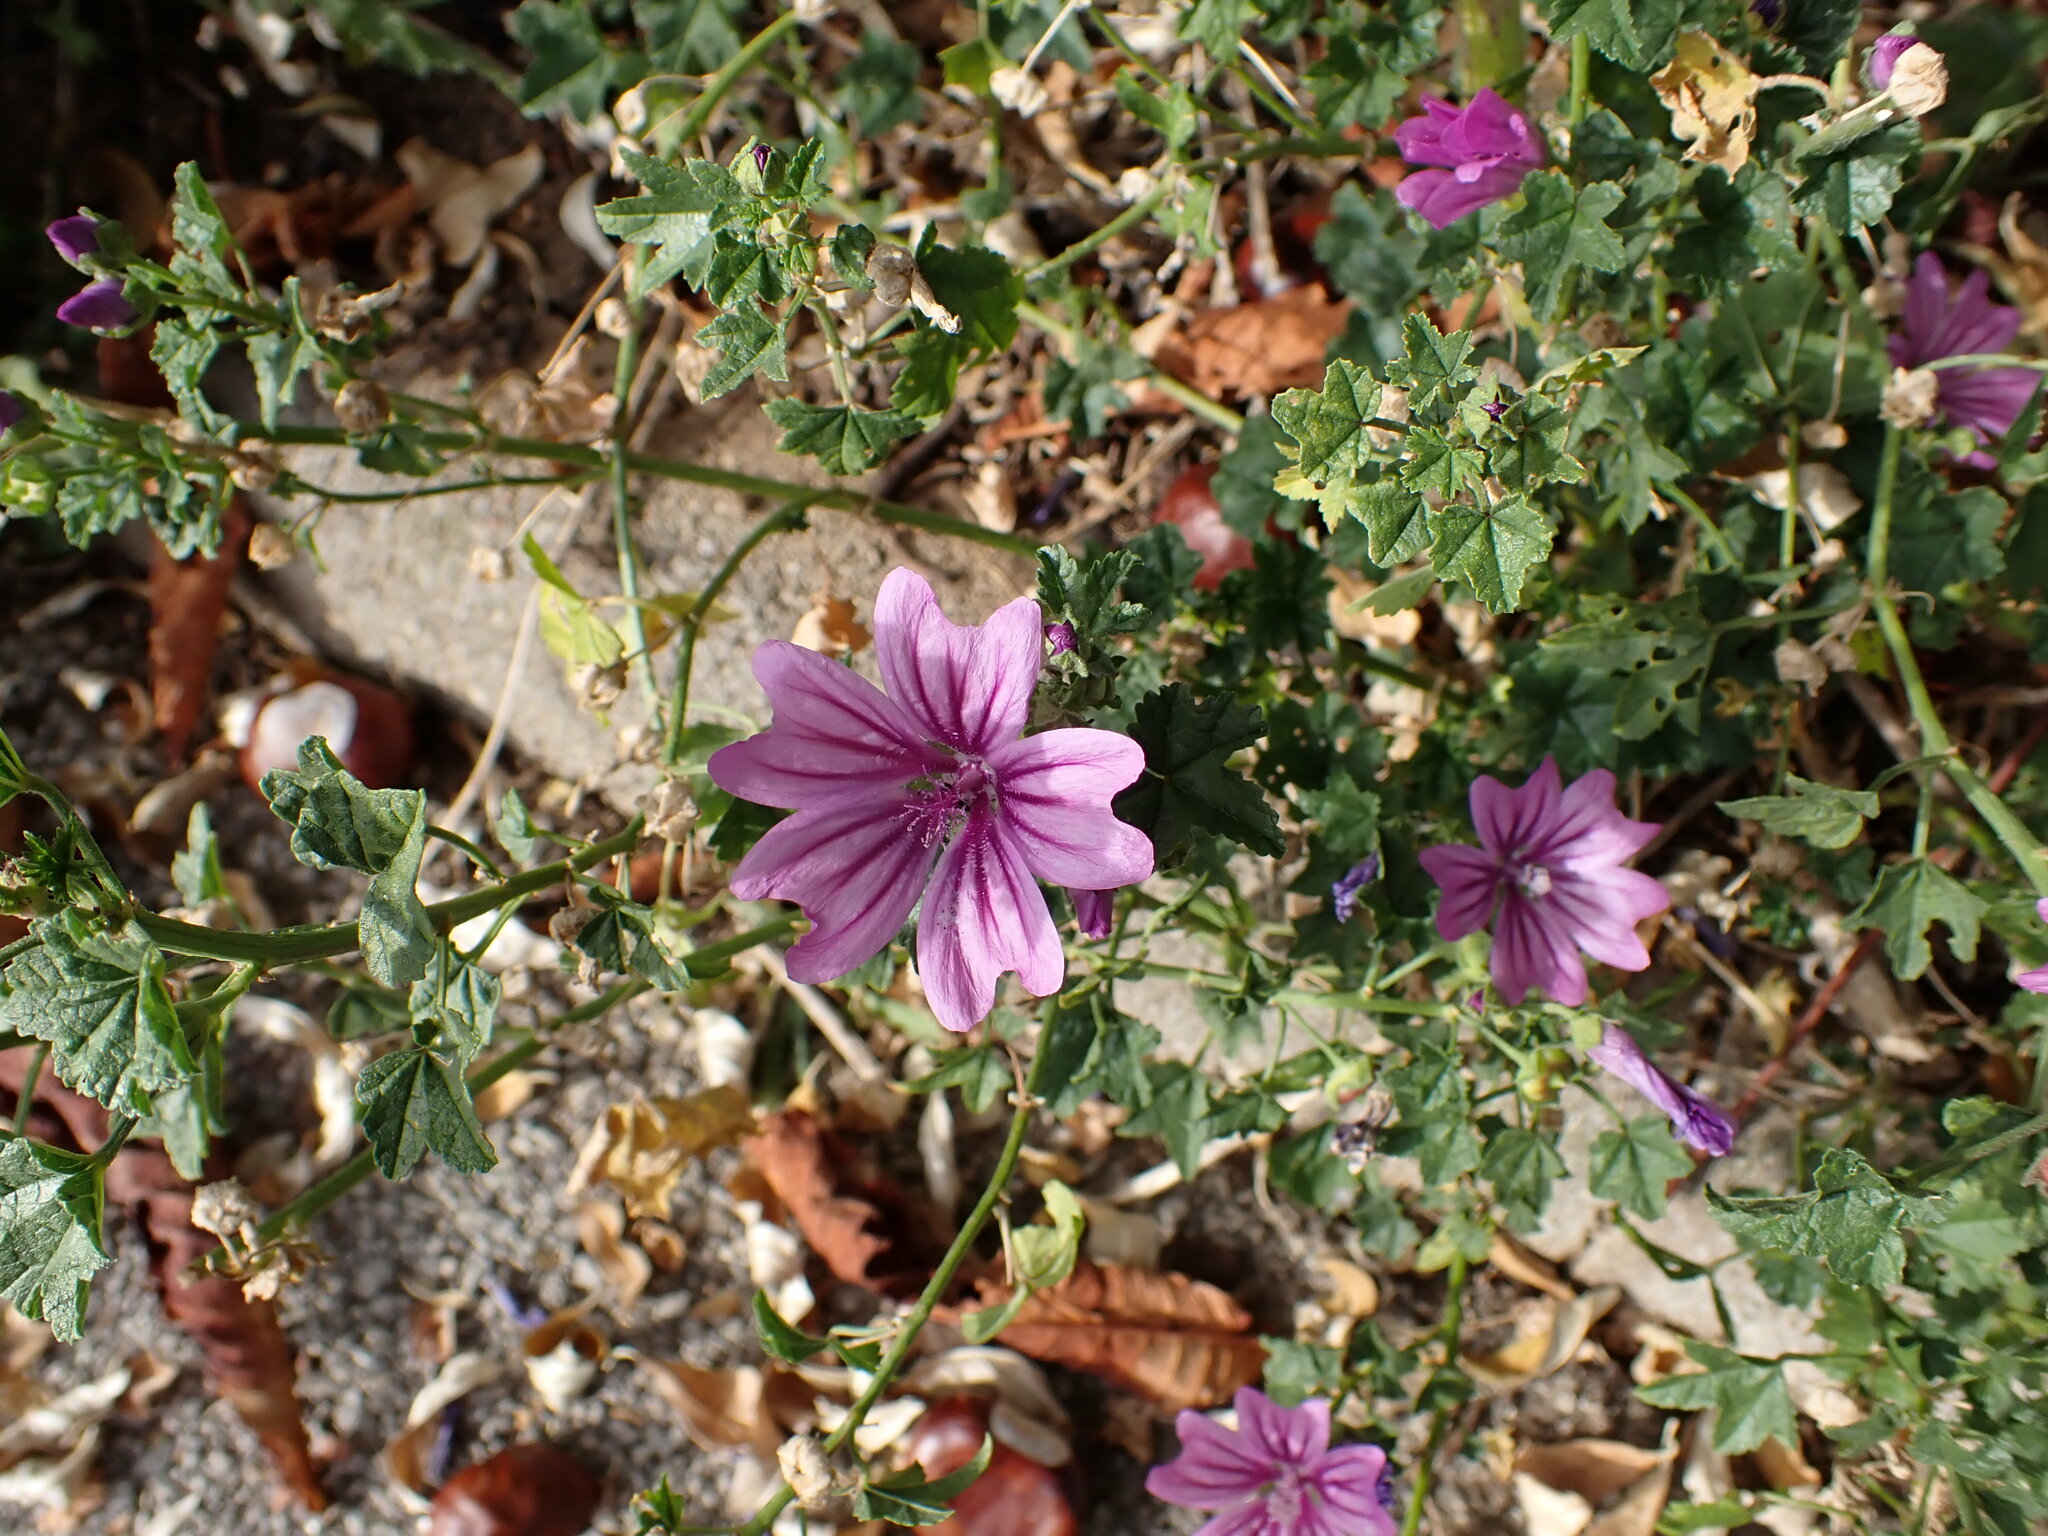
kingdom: Plantae
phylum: Tracheophyta
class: Magnoliopsida
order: Malvales
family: Malvaceae
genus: Malva
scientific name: Malva sylvestris
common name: Common mallow
